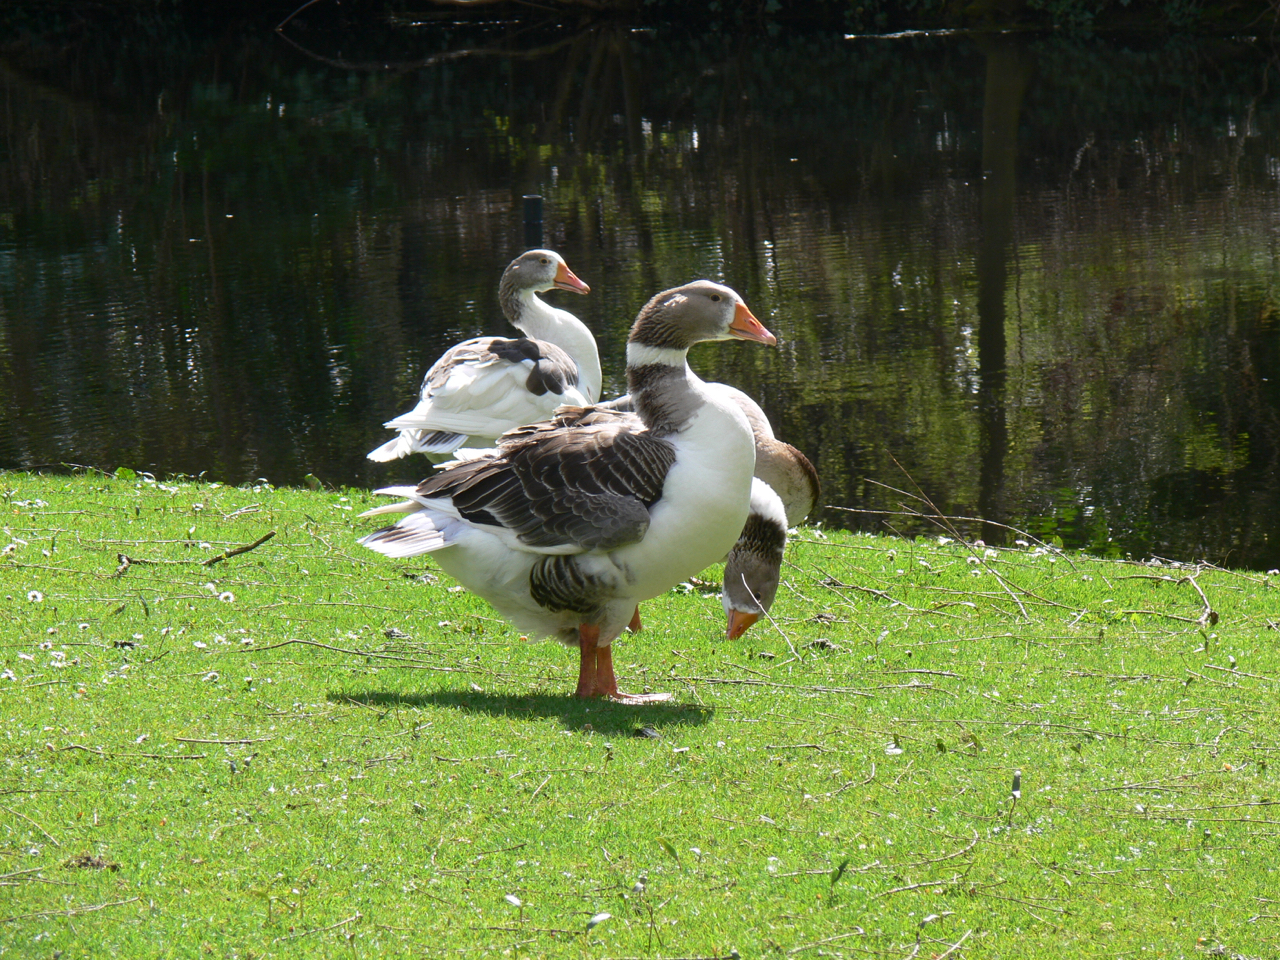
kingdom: Animalia
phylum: Chordata
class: Aves
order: Anseriformes
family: Anatidae
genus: Anser
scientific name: Anser anser
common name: Greylag goose
